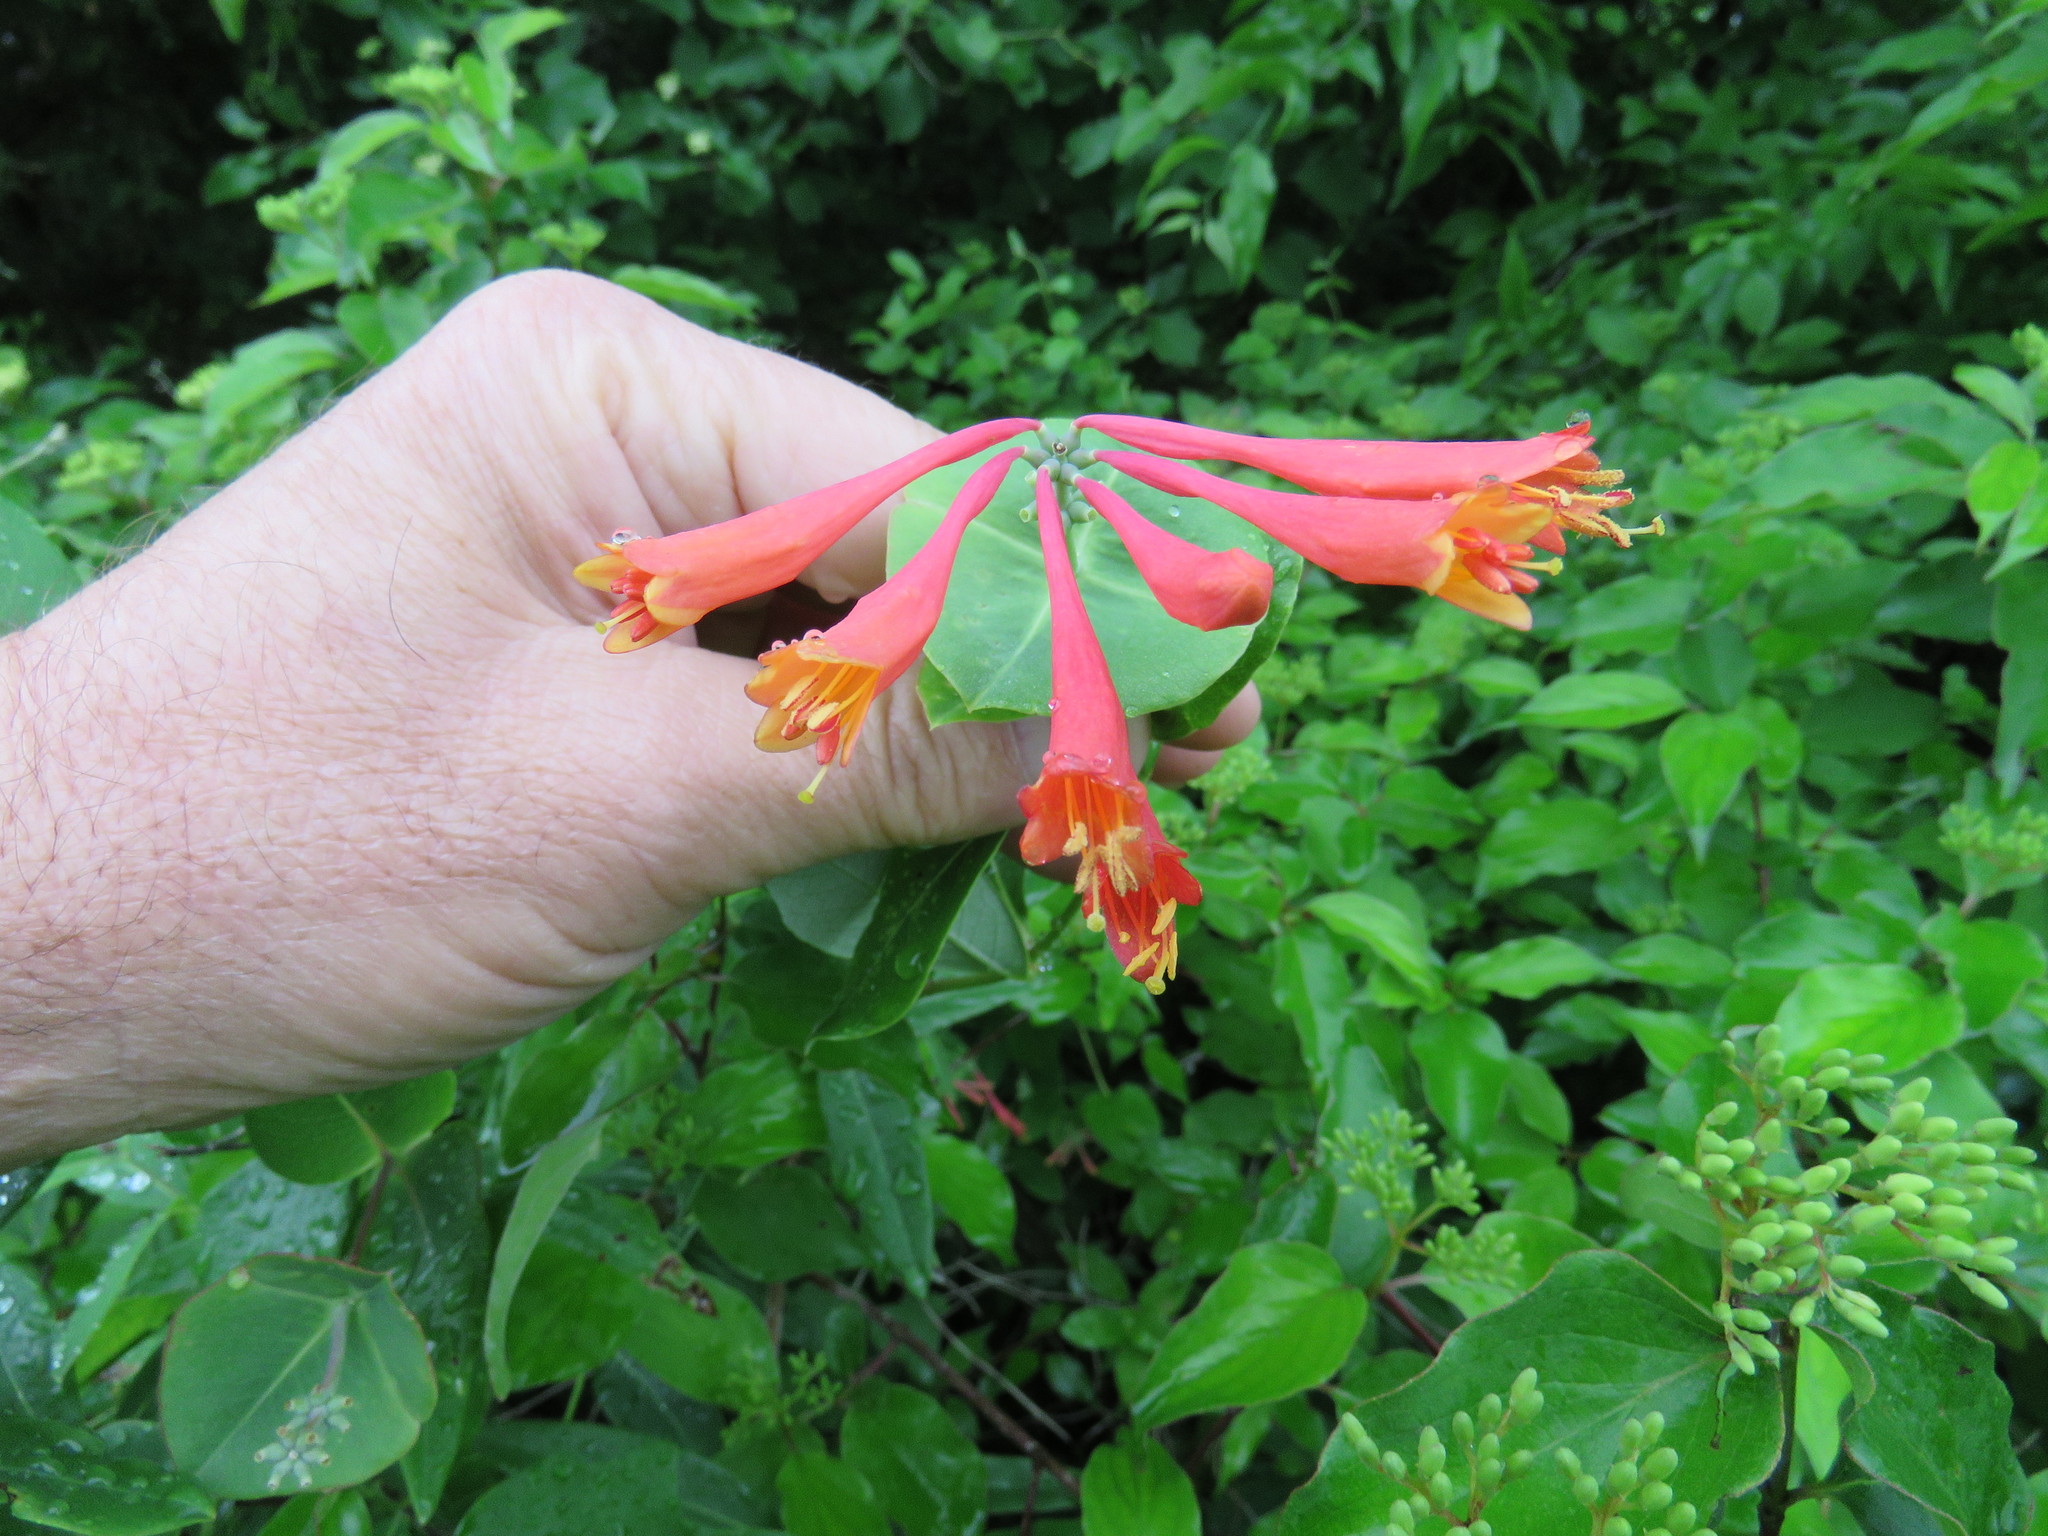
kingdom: Plantae
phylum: Tracheophyta
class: Magnoliopsida
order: Dipsacales
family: Caprifoliaceae
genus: Lonicera
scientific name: Lonicera sempervirens
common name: Coral honeysuckle
